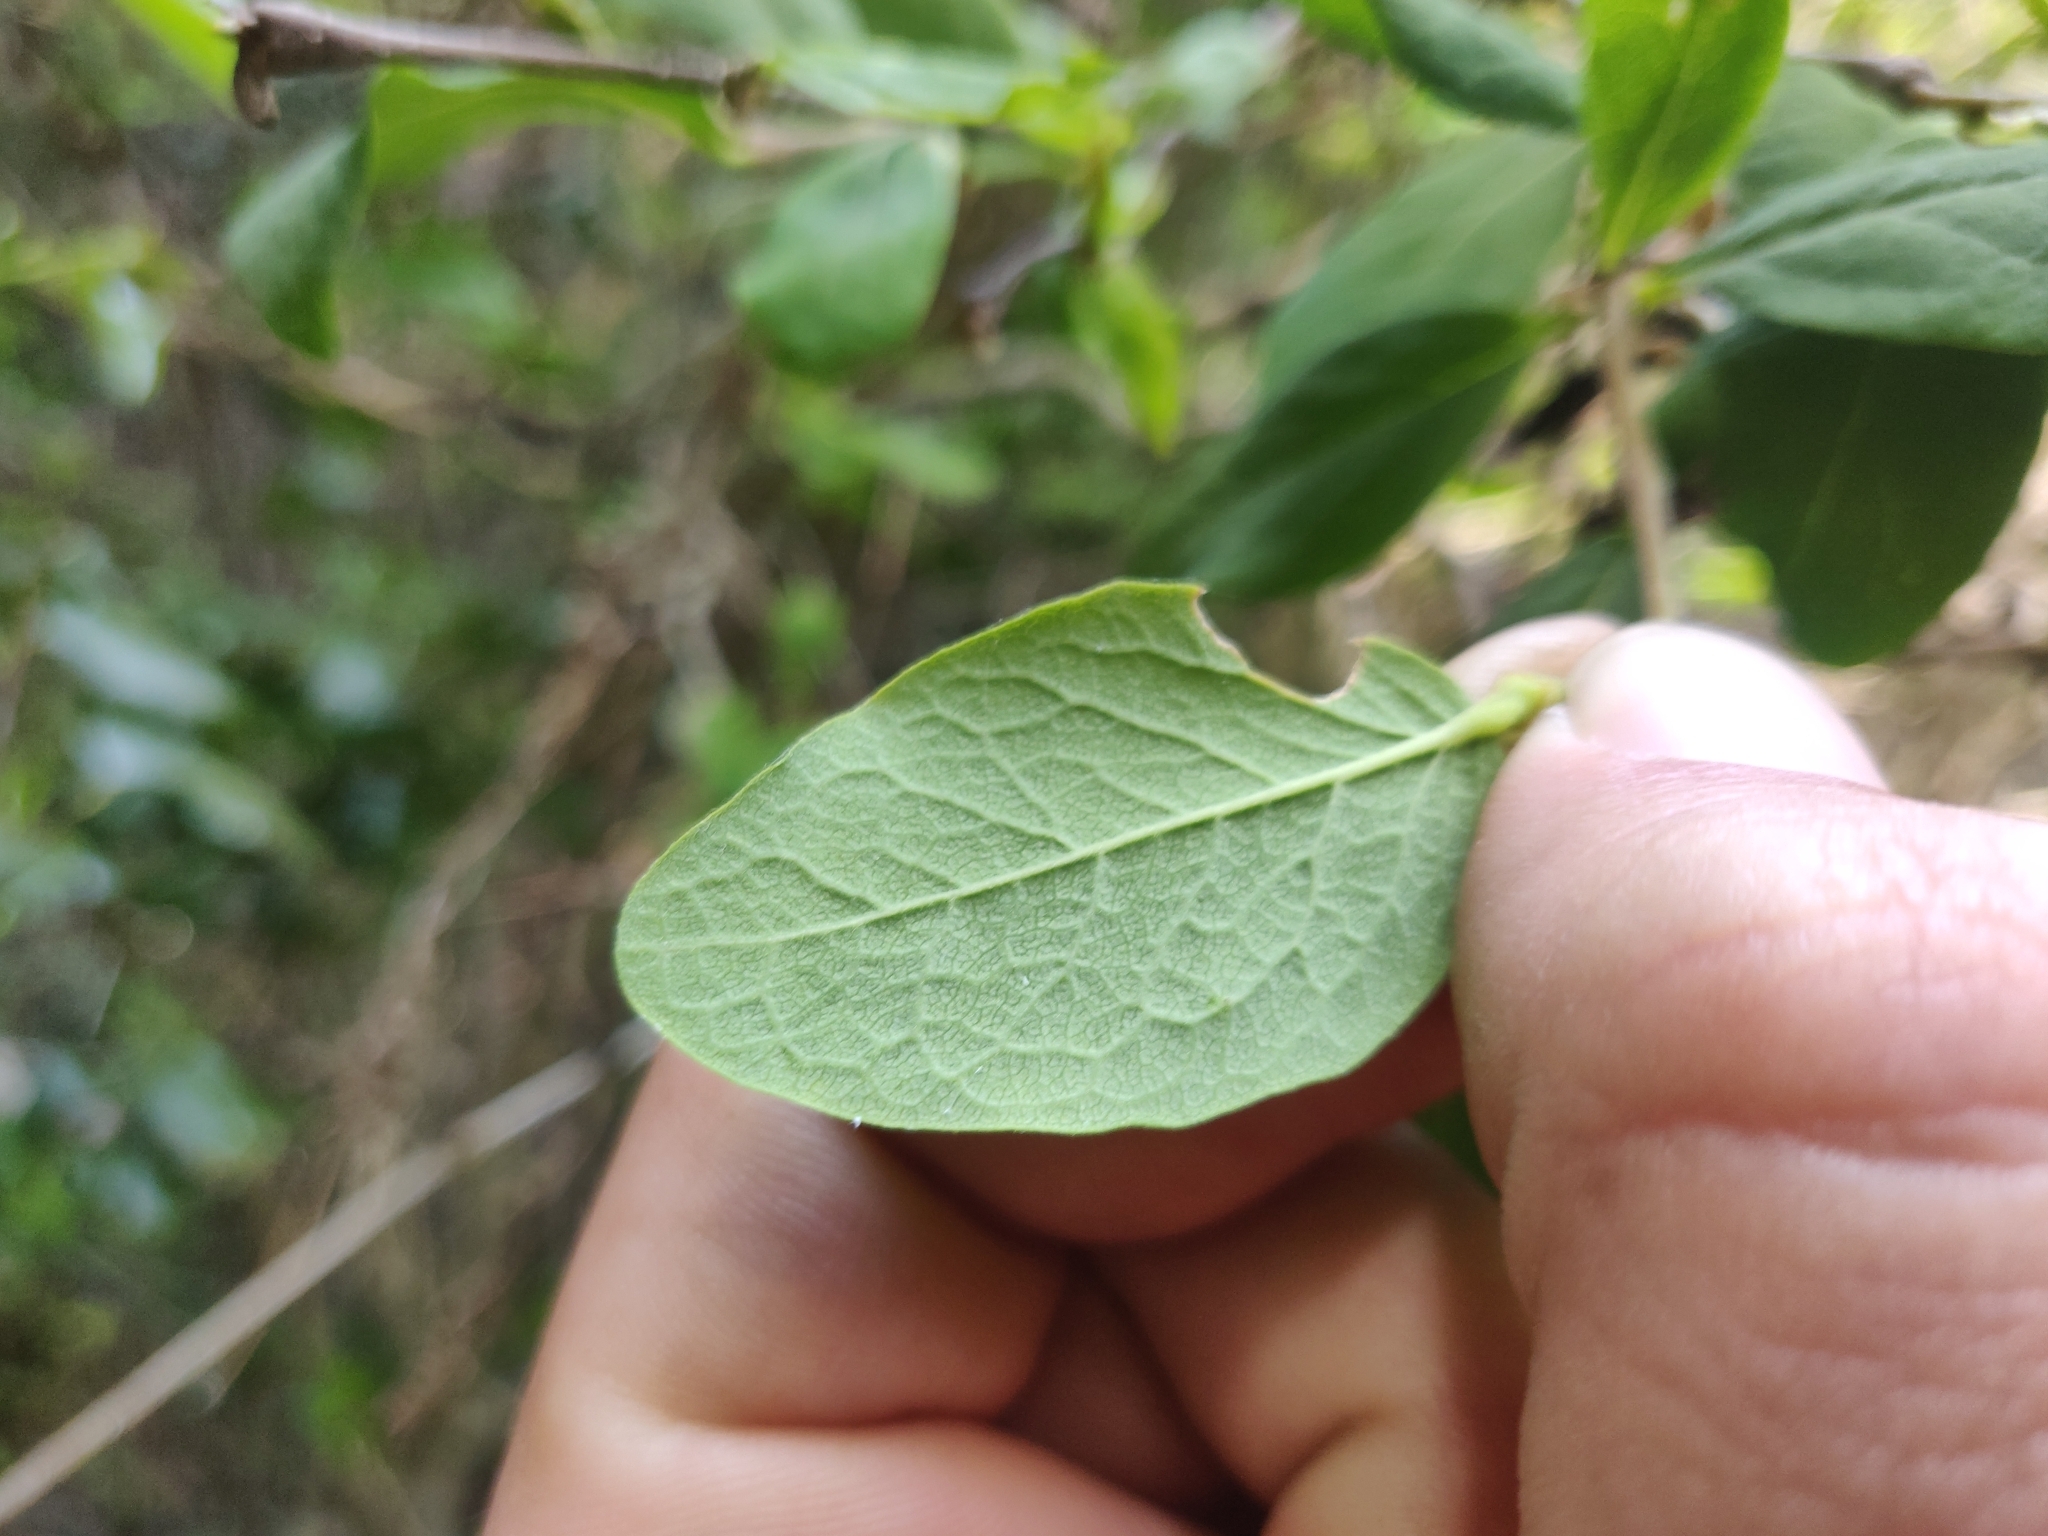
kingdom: Plantae
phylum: Tracheophyta
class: Magnoliopsida
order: Malvales
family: Thymelaeaceae
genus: Dirca
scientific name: Dirca occidentalis
